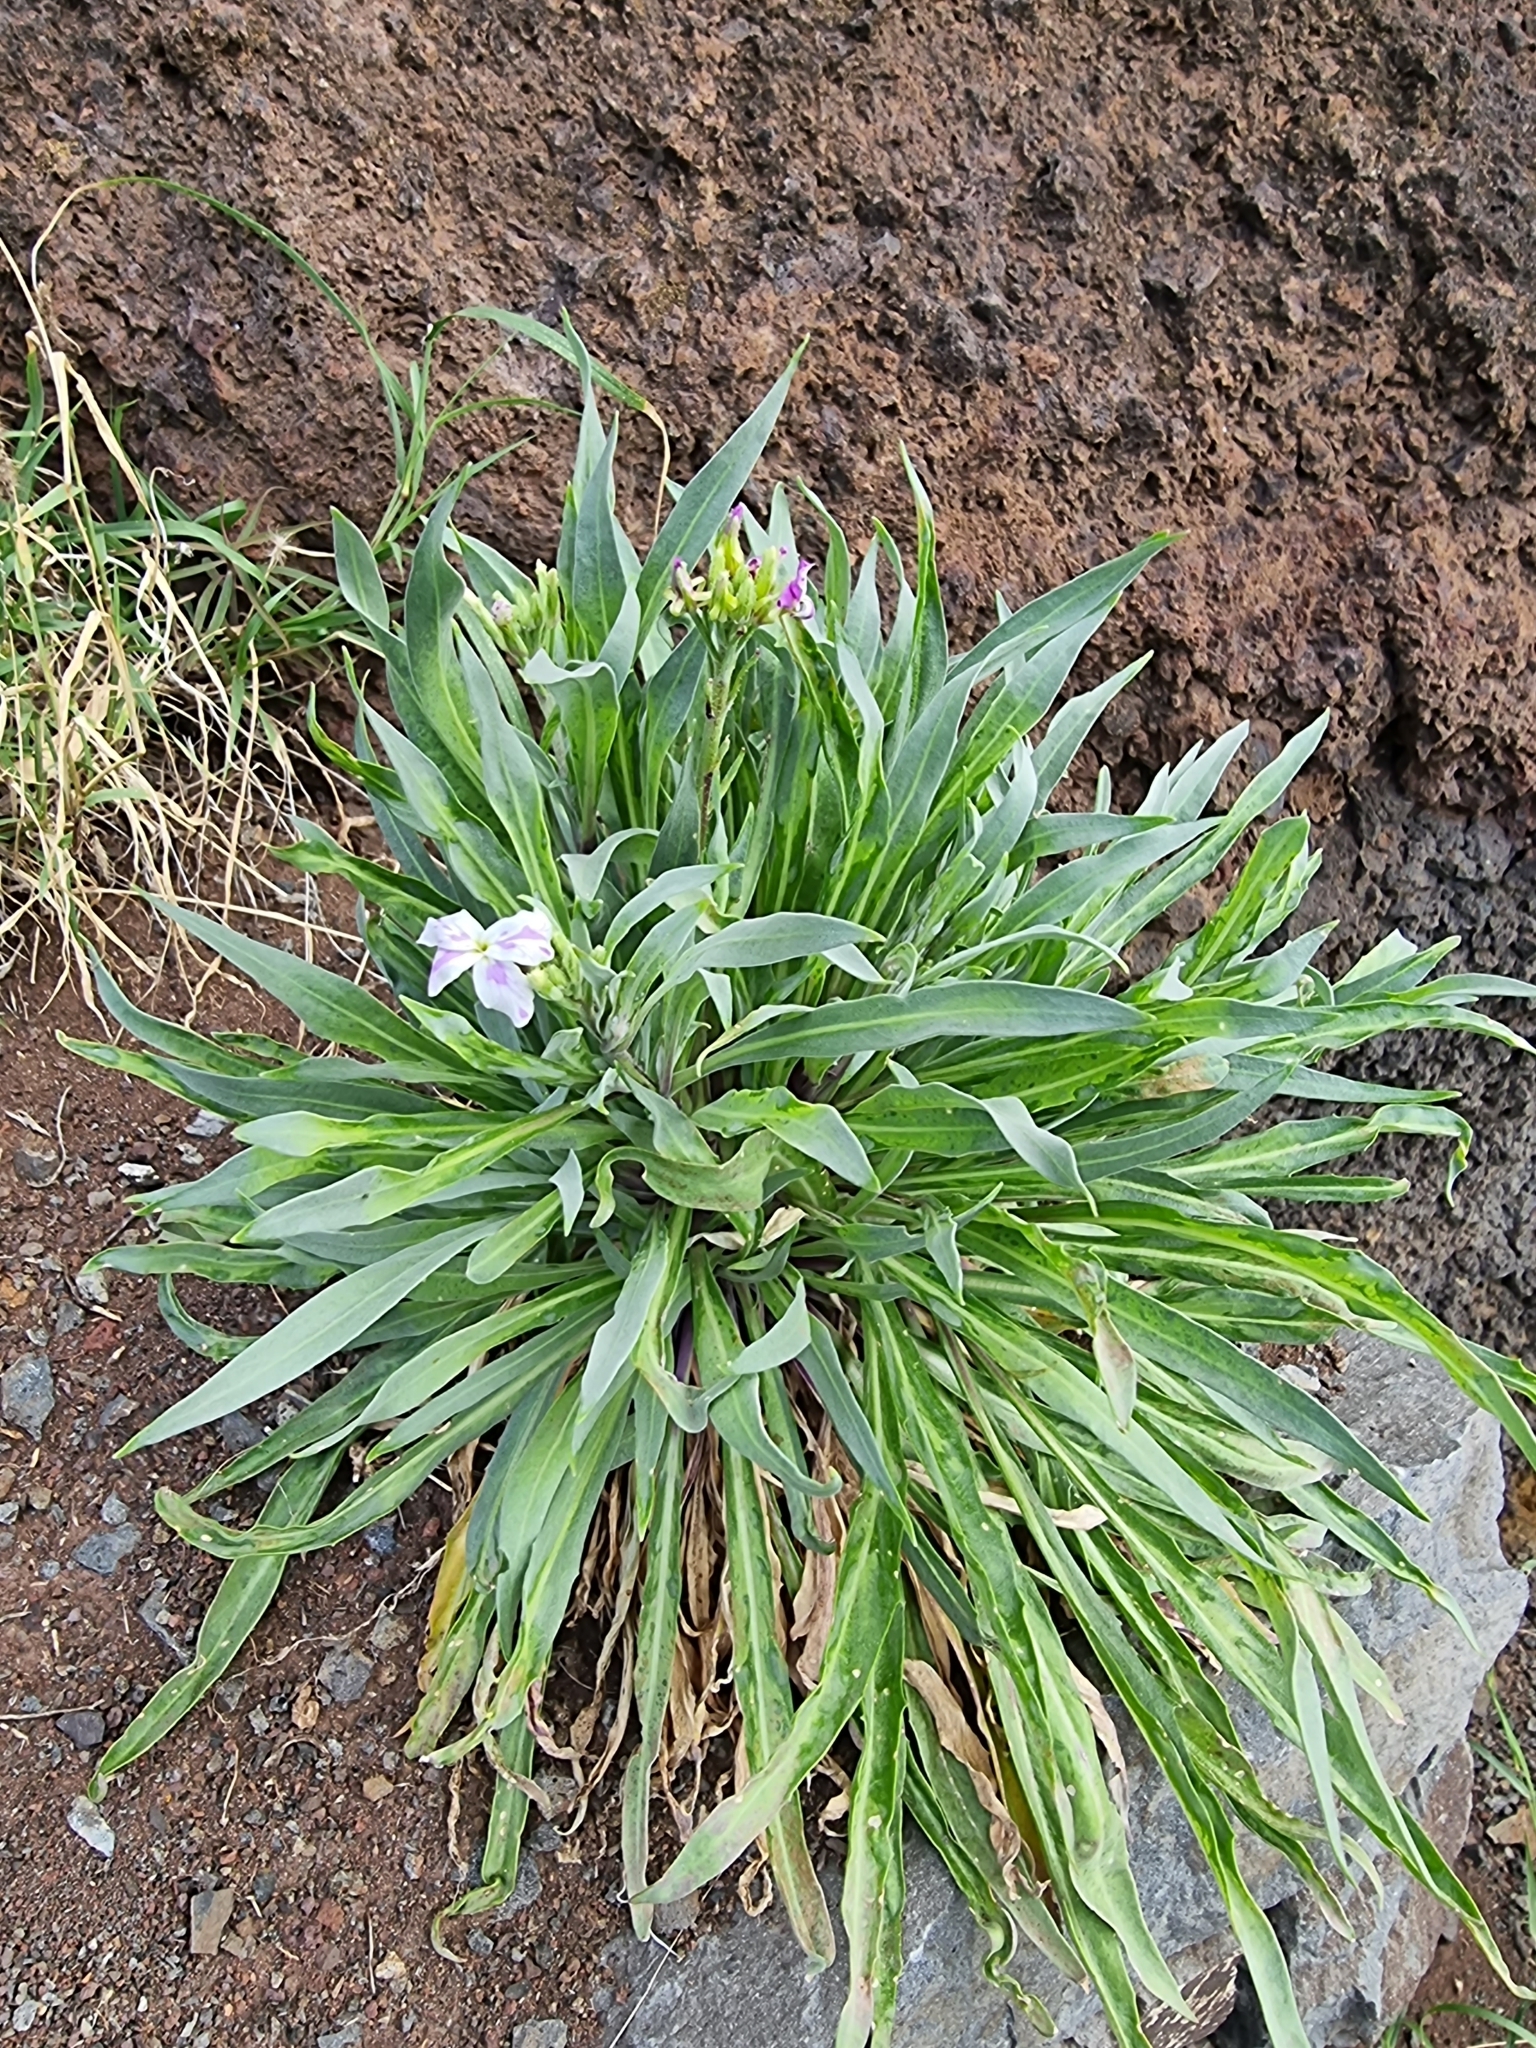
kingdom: Plantae
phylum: Tracheophyta
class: Magnoliopsida
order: Brassicales
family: Brassicaceae
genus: Matthiola
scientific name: Matthiola maderensis
